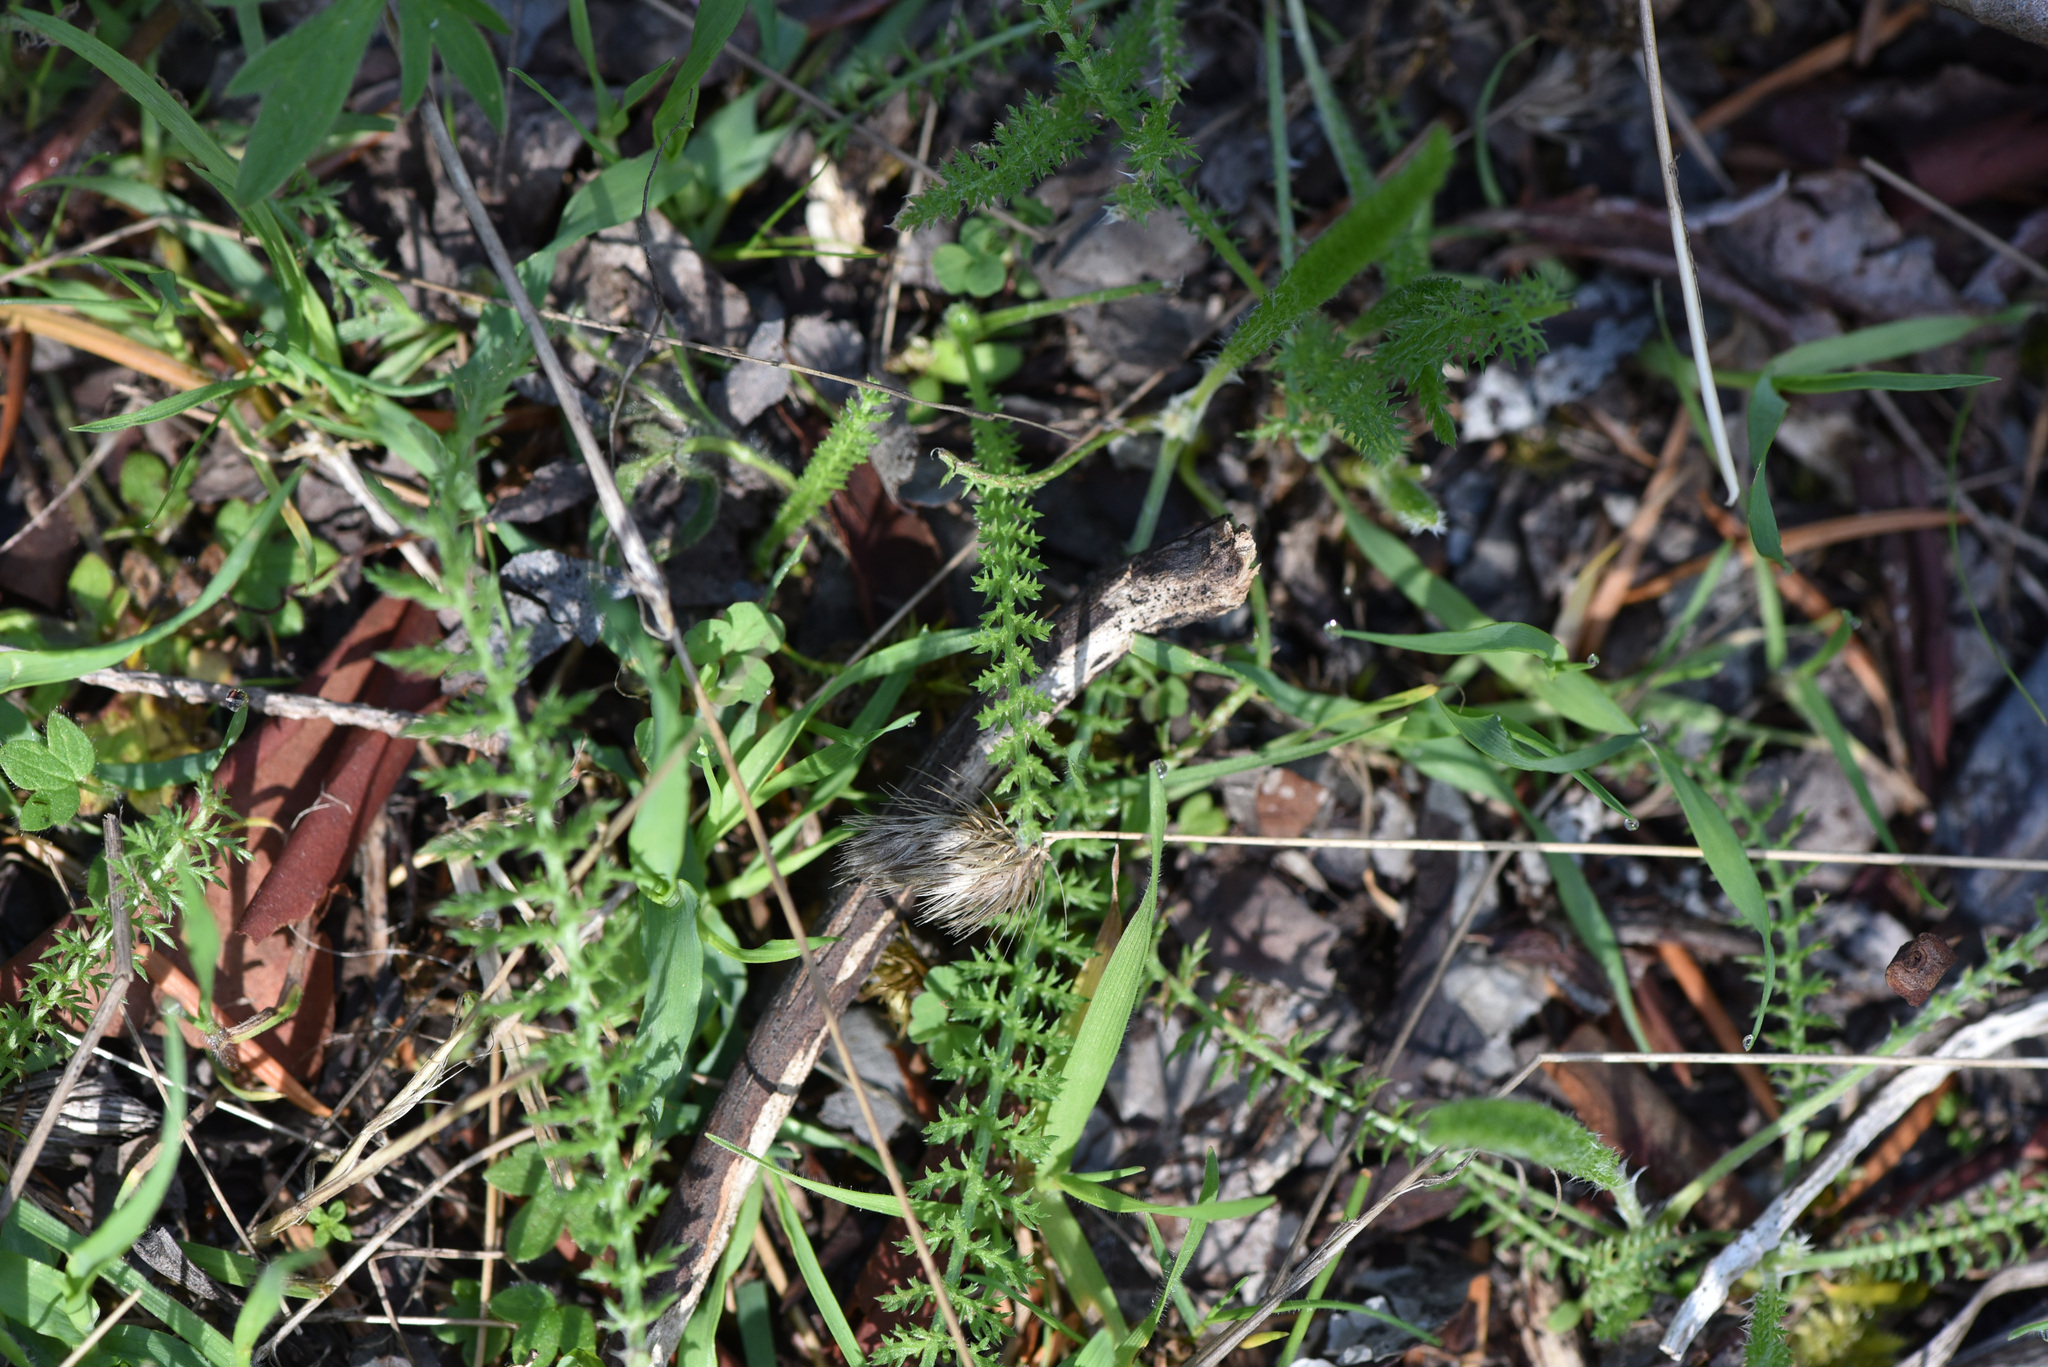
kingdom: Plantae
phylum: Tracheophyta
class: Magnoliopsida
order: Asterales
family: Asteraceae
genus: Achillea
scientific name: Achillea millefolium
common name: Yarrow
